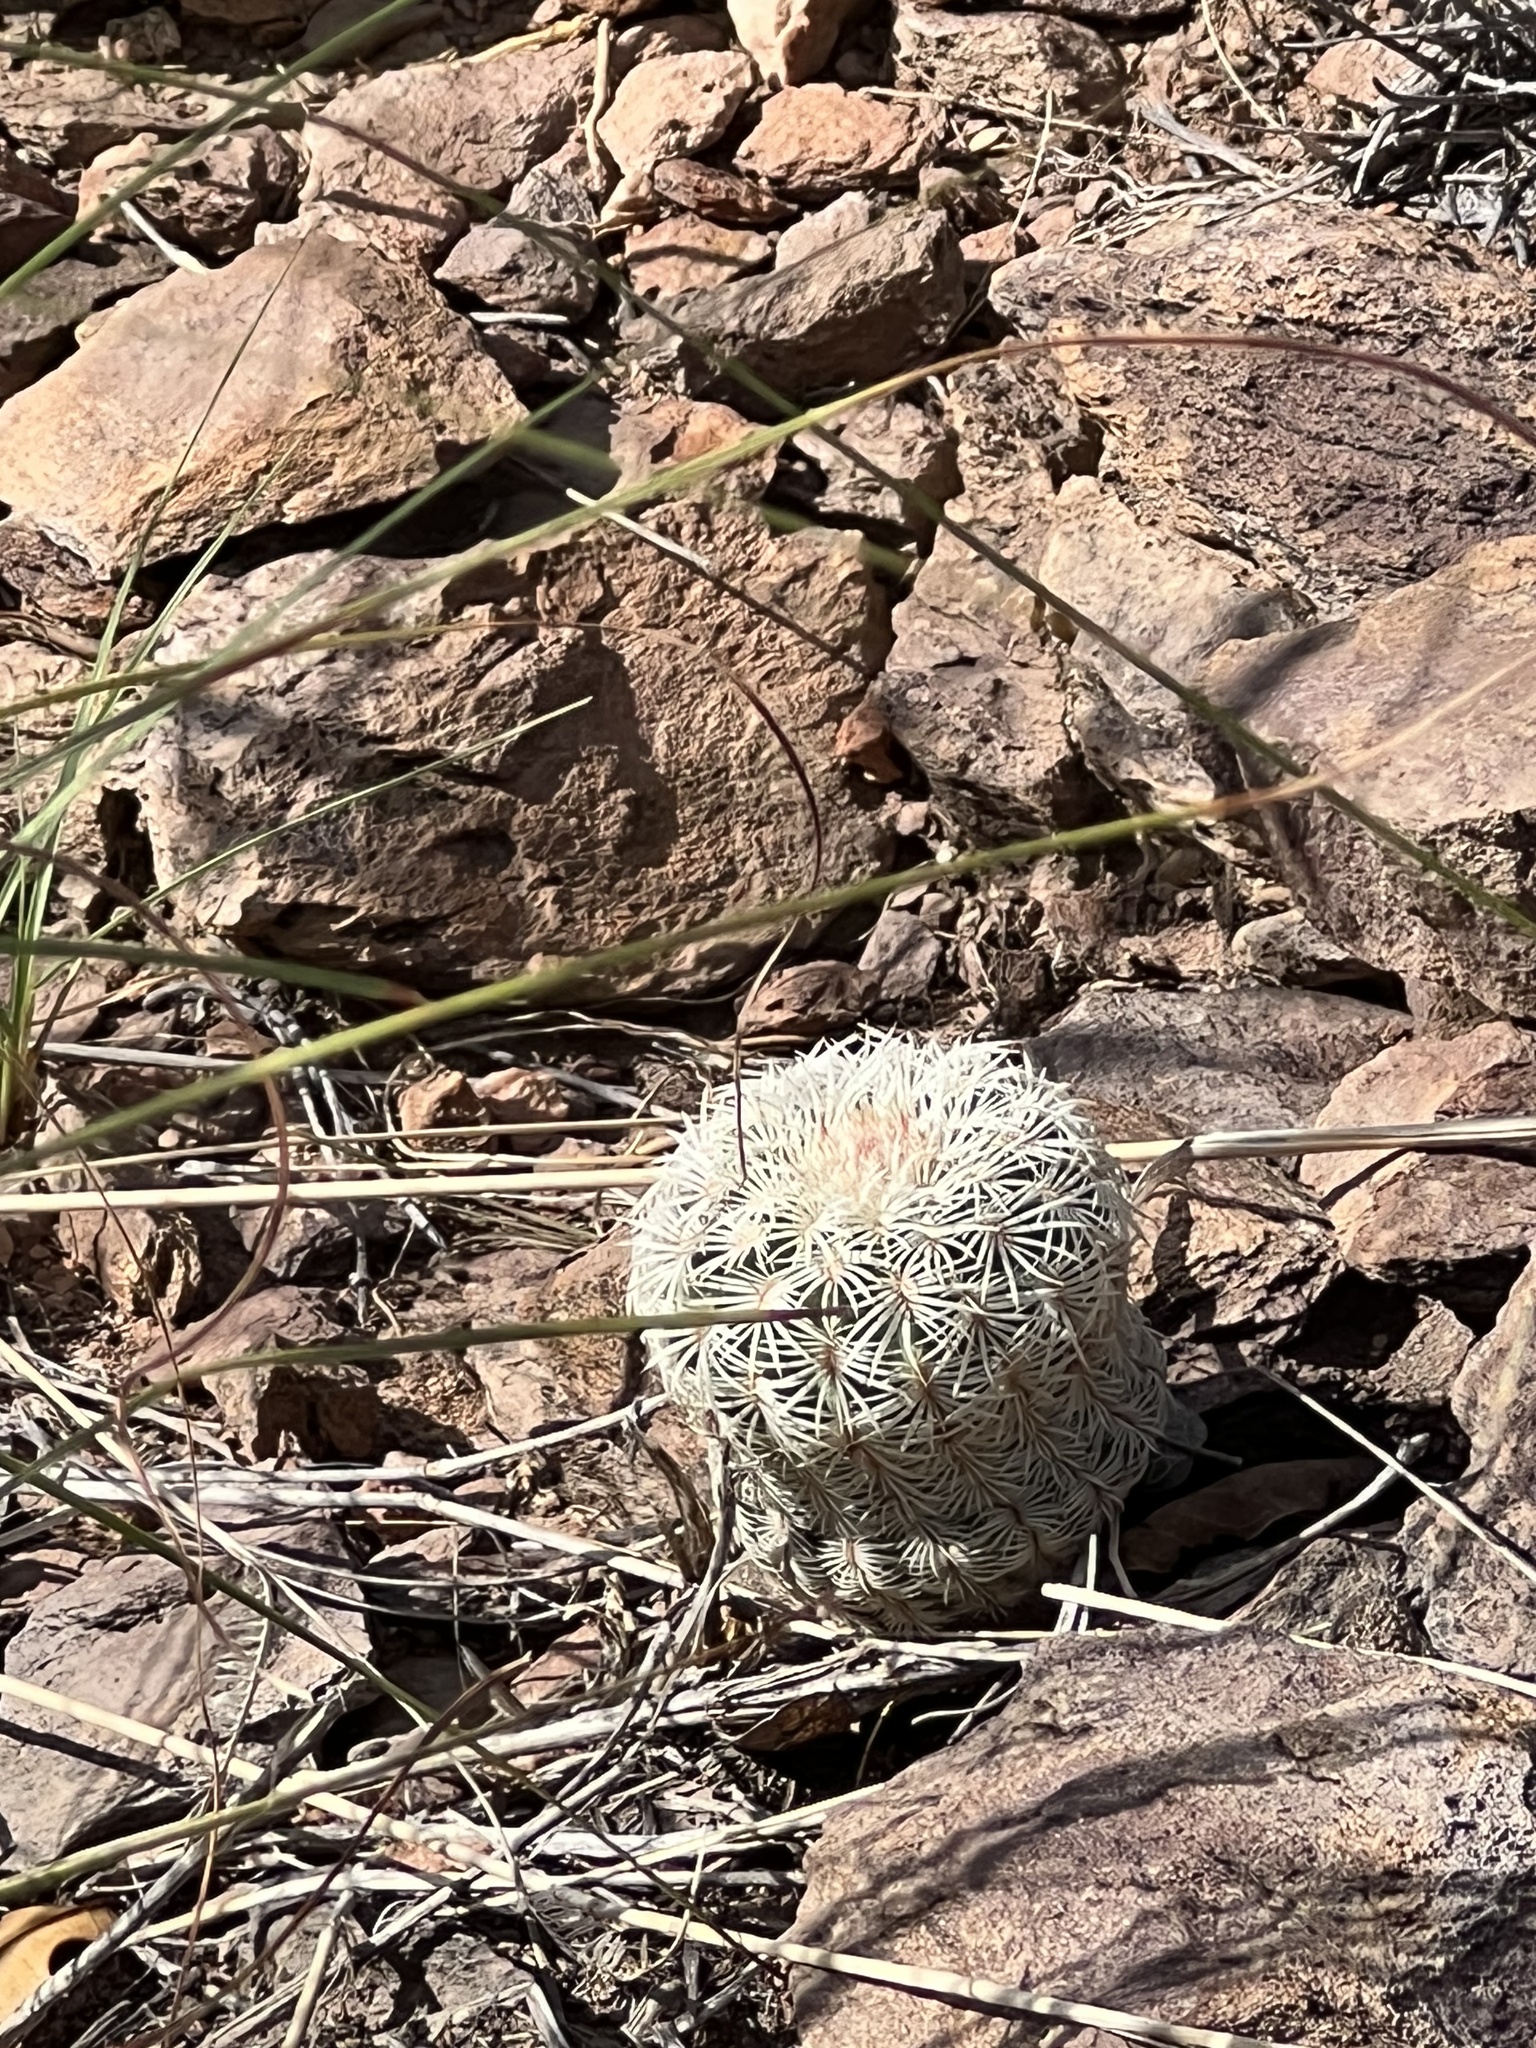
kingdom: Plantae
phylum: Tracheophyta
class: Magnoliopsida
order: Caryophyllales
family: Cactaceae
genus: Echinocereus
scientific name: Echinocereus rigidissimus
